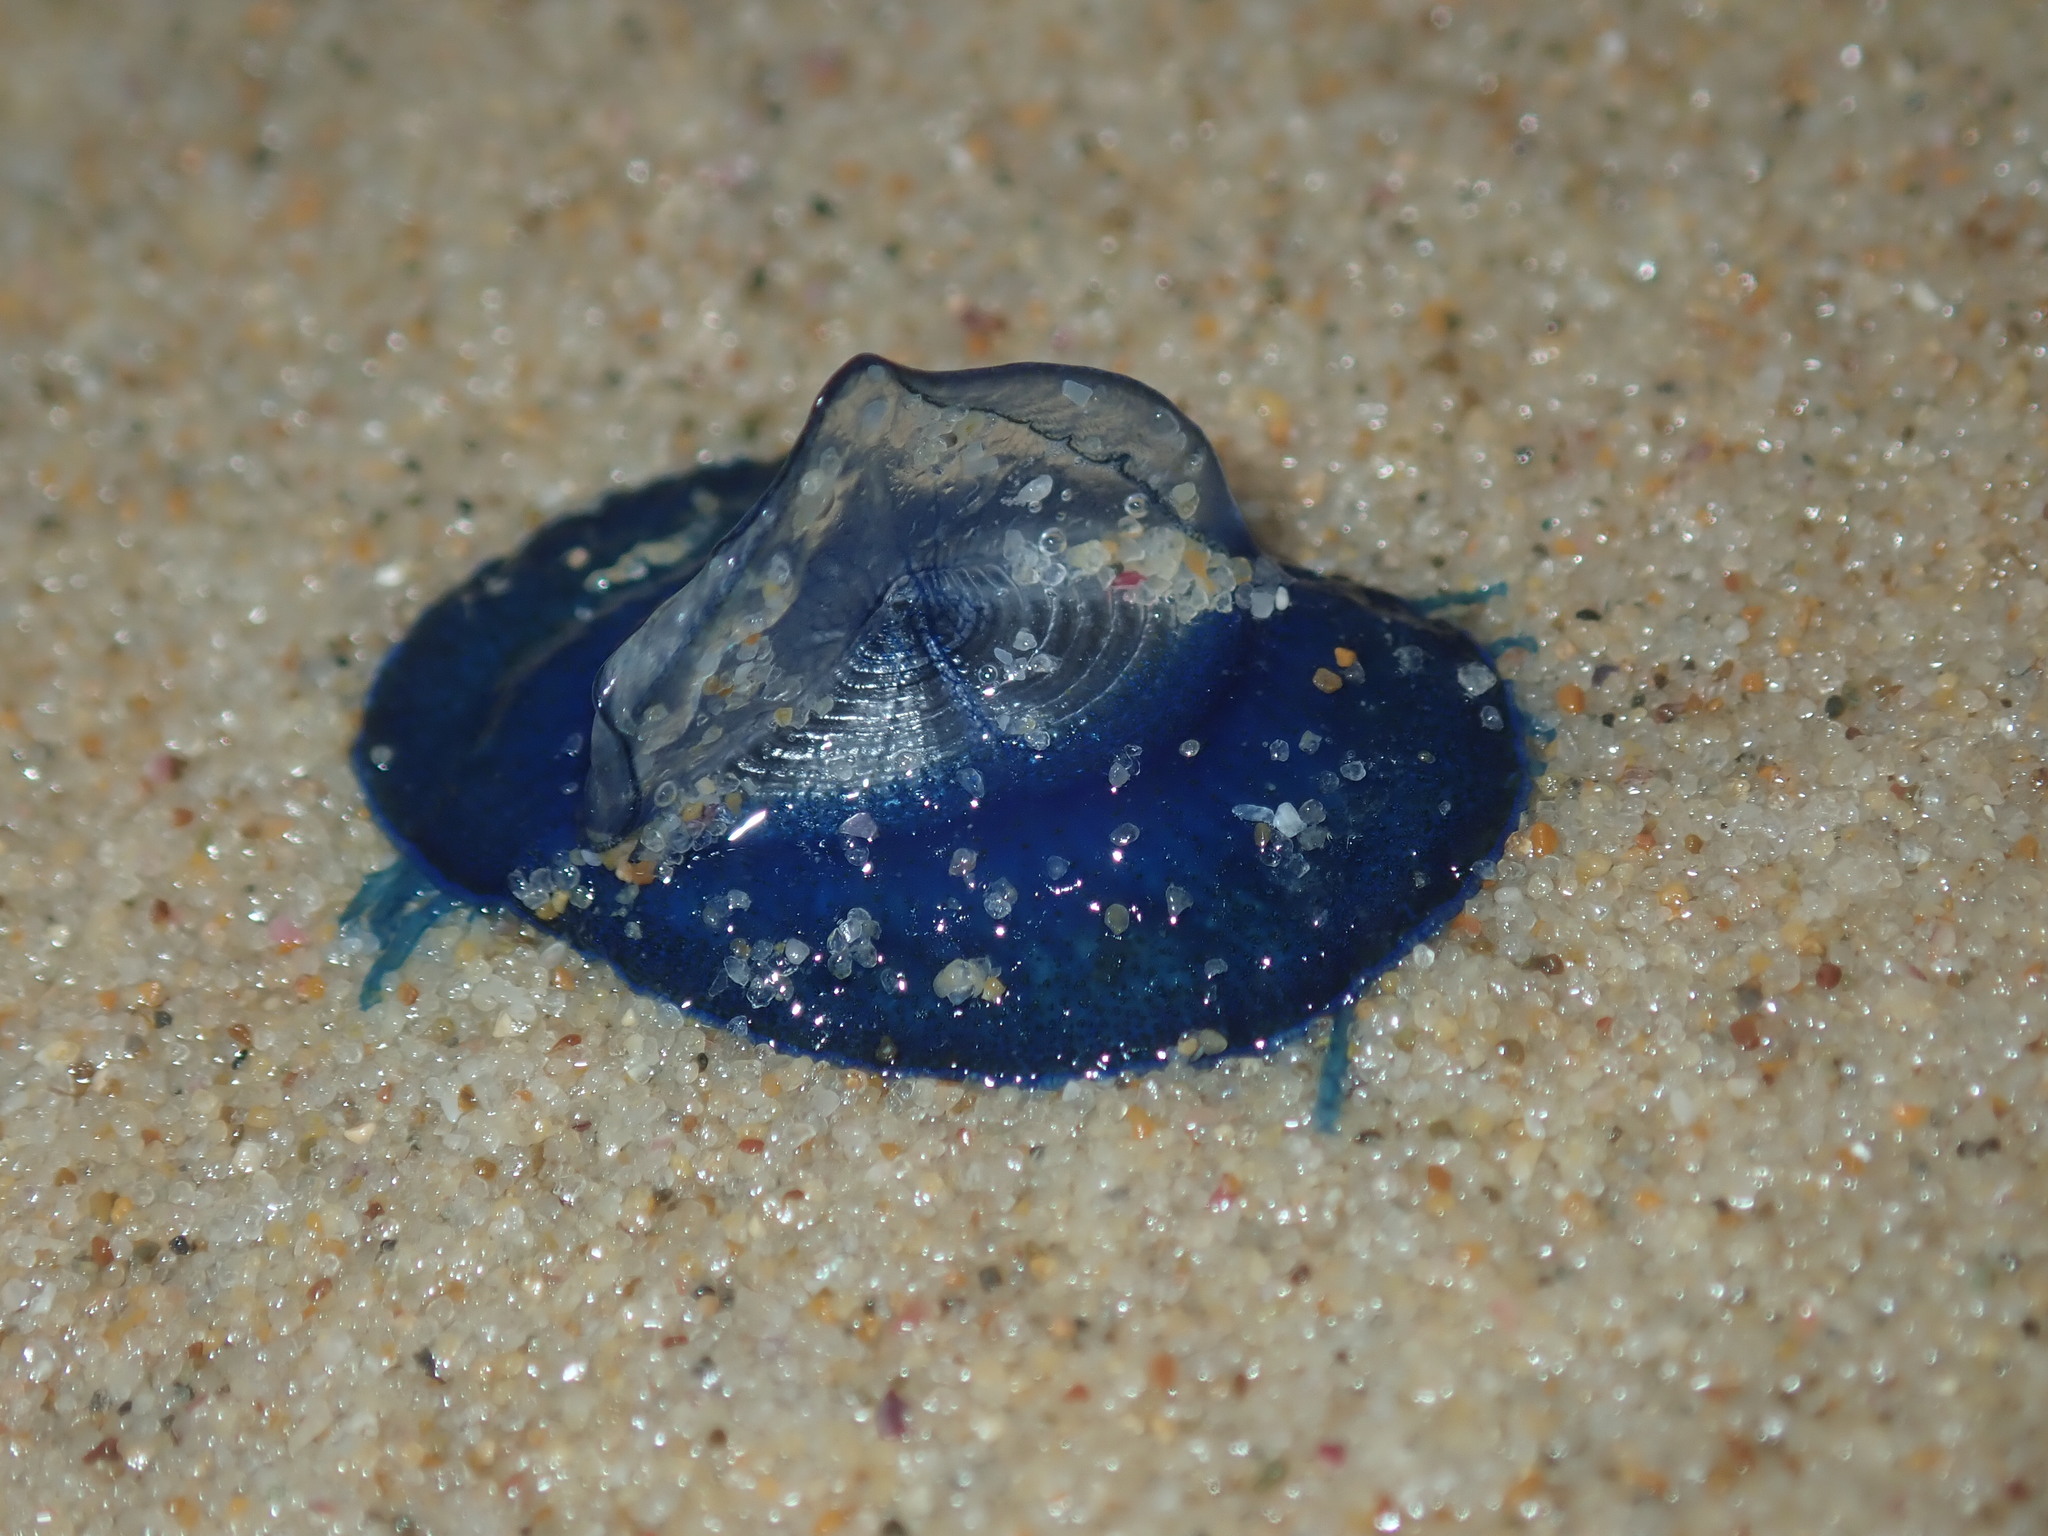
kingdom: Animalia
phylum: Cnidaria
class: Hydrozoa
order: Anthoathecata
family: Porpitidae
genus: Velella
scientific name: Velella velella
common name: By-the-wind-sailor
